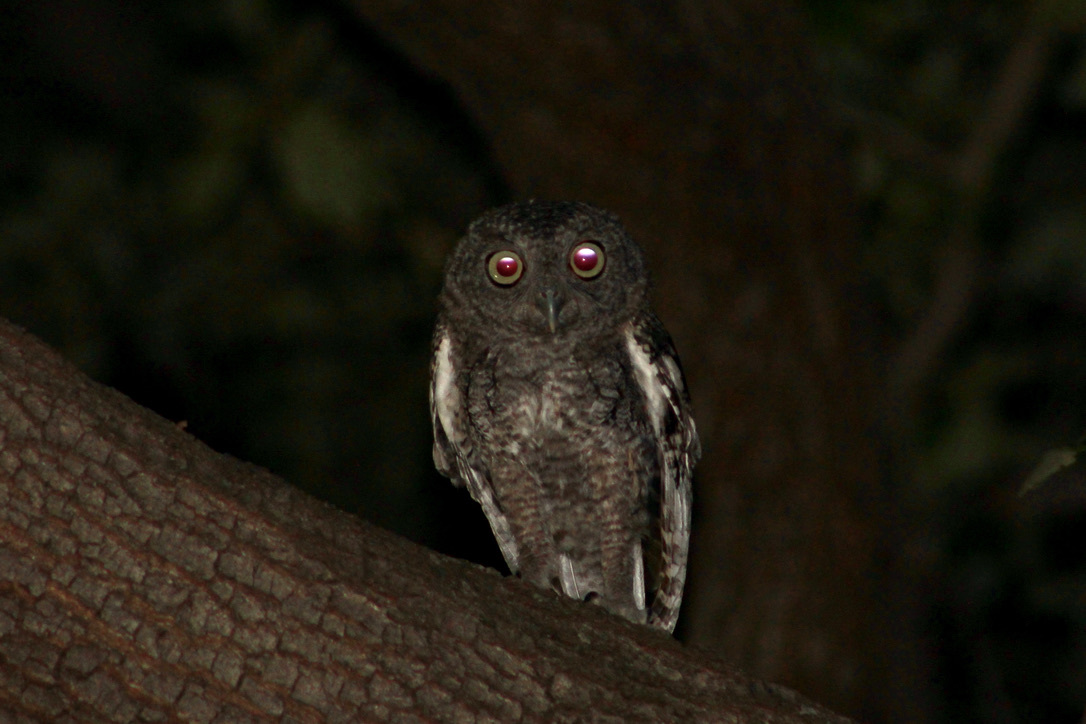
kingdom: Animalia
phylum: Chordata
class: Aves
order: Strigiformes
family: Strigidae
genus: Megascops
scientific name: Megascops asio
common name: Eastern screech-owl
